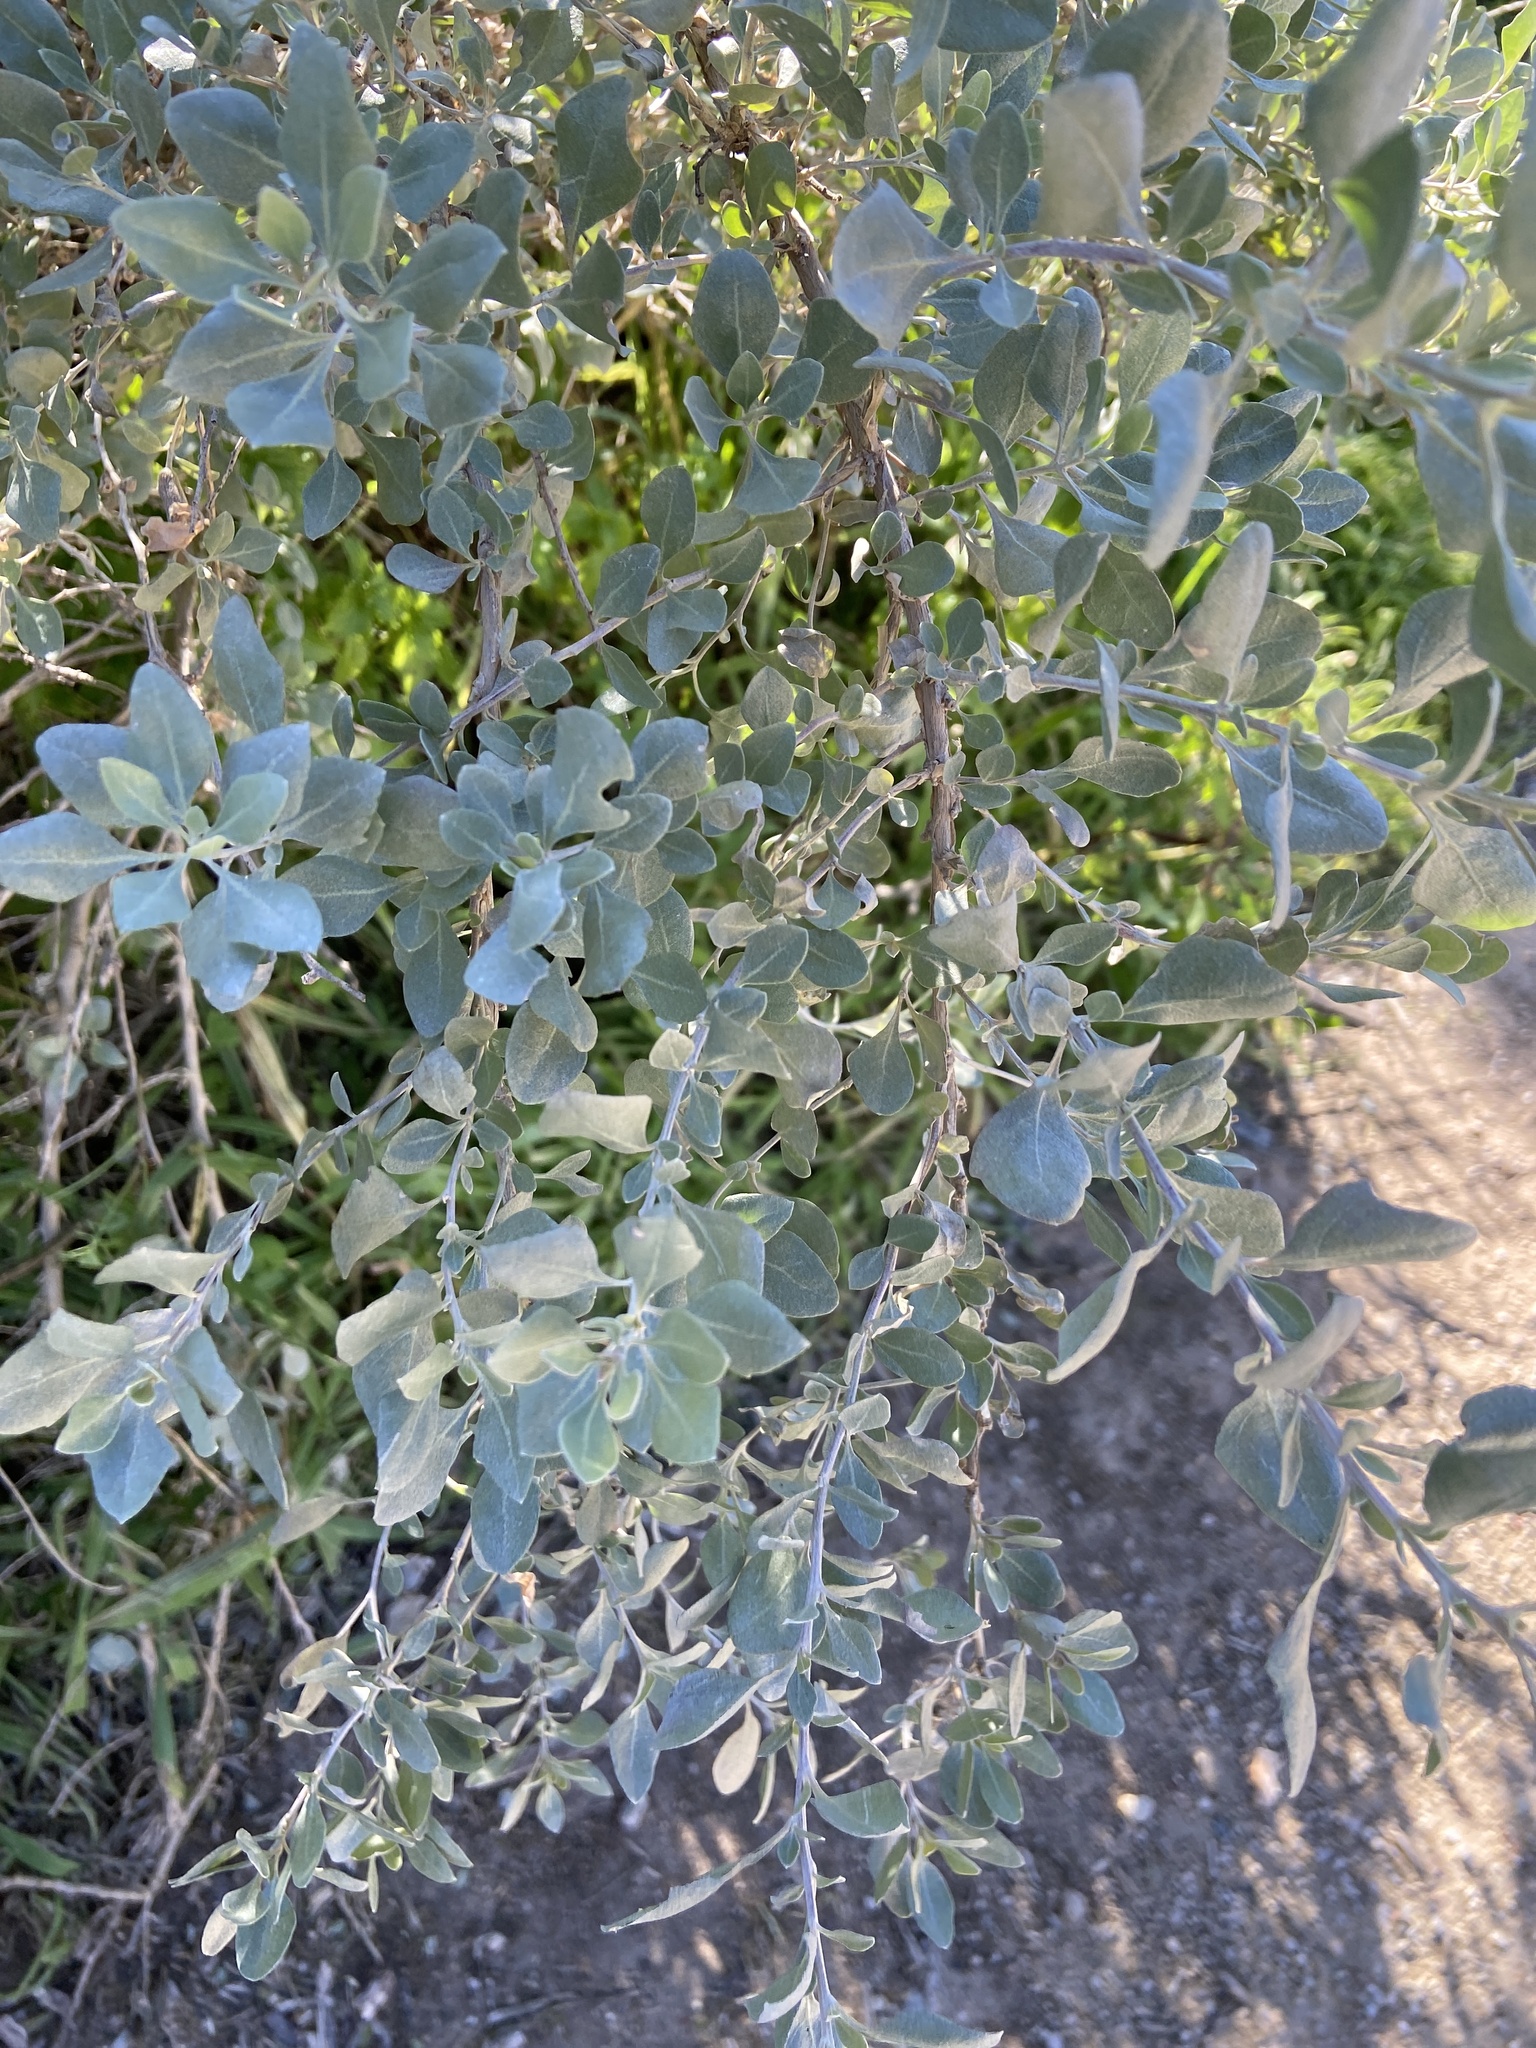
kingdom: Plantae
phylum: Tracheophyta
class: Magnoliopsida
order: Caryophyllales
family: Amaranthaceae
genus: Atriplex
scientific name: Atriplex halimus
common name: Shrubby orache
